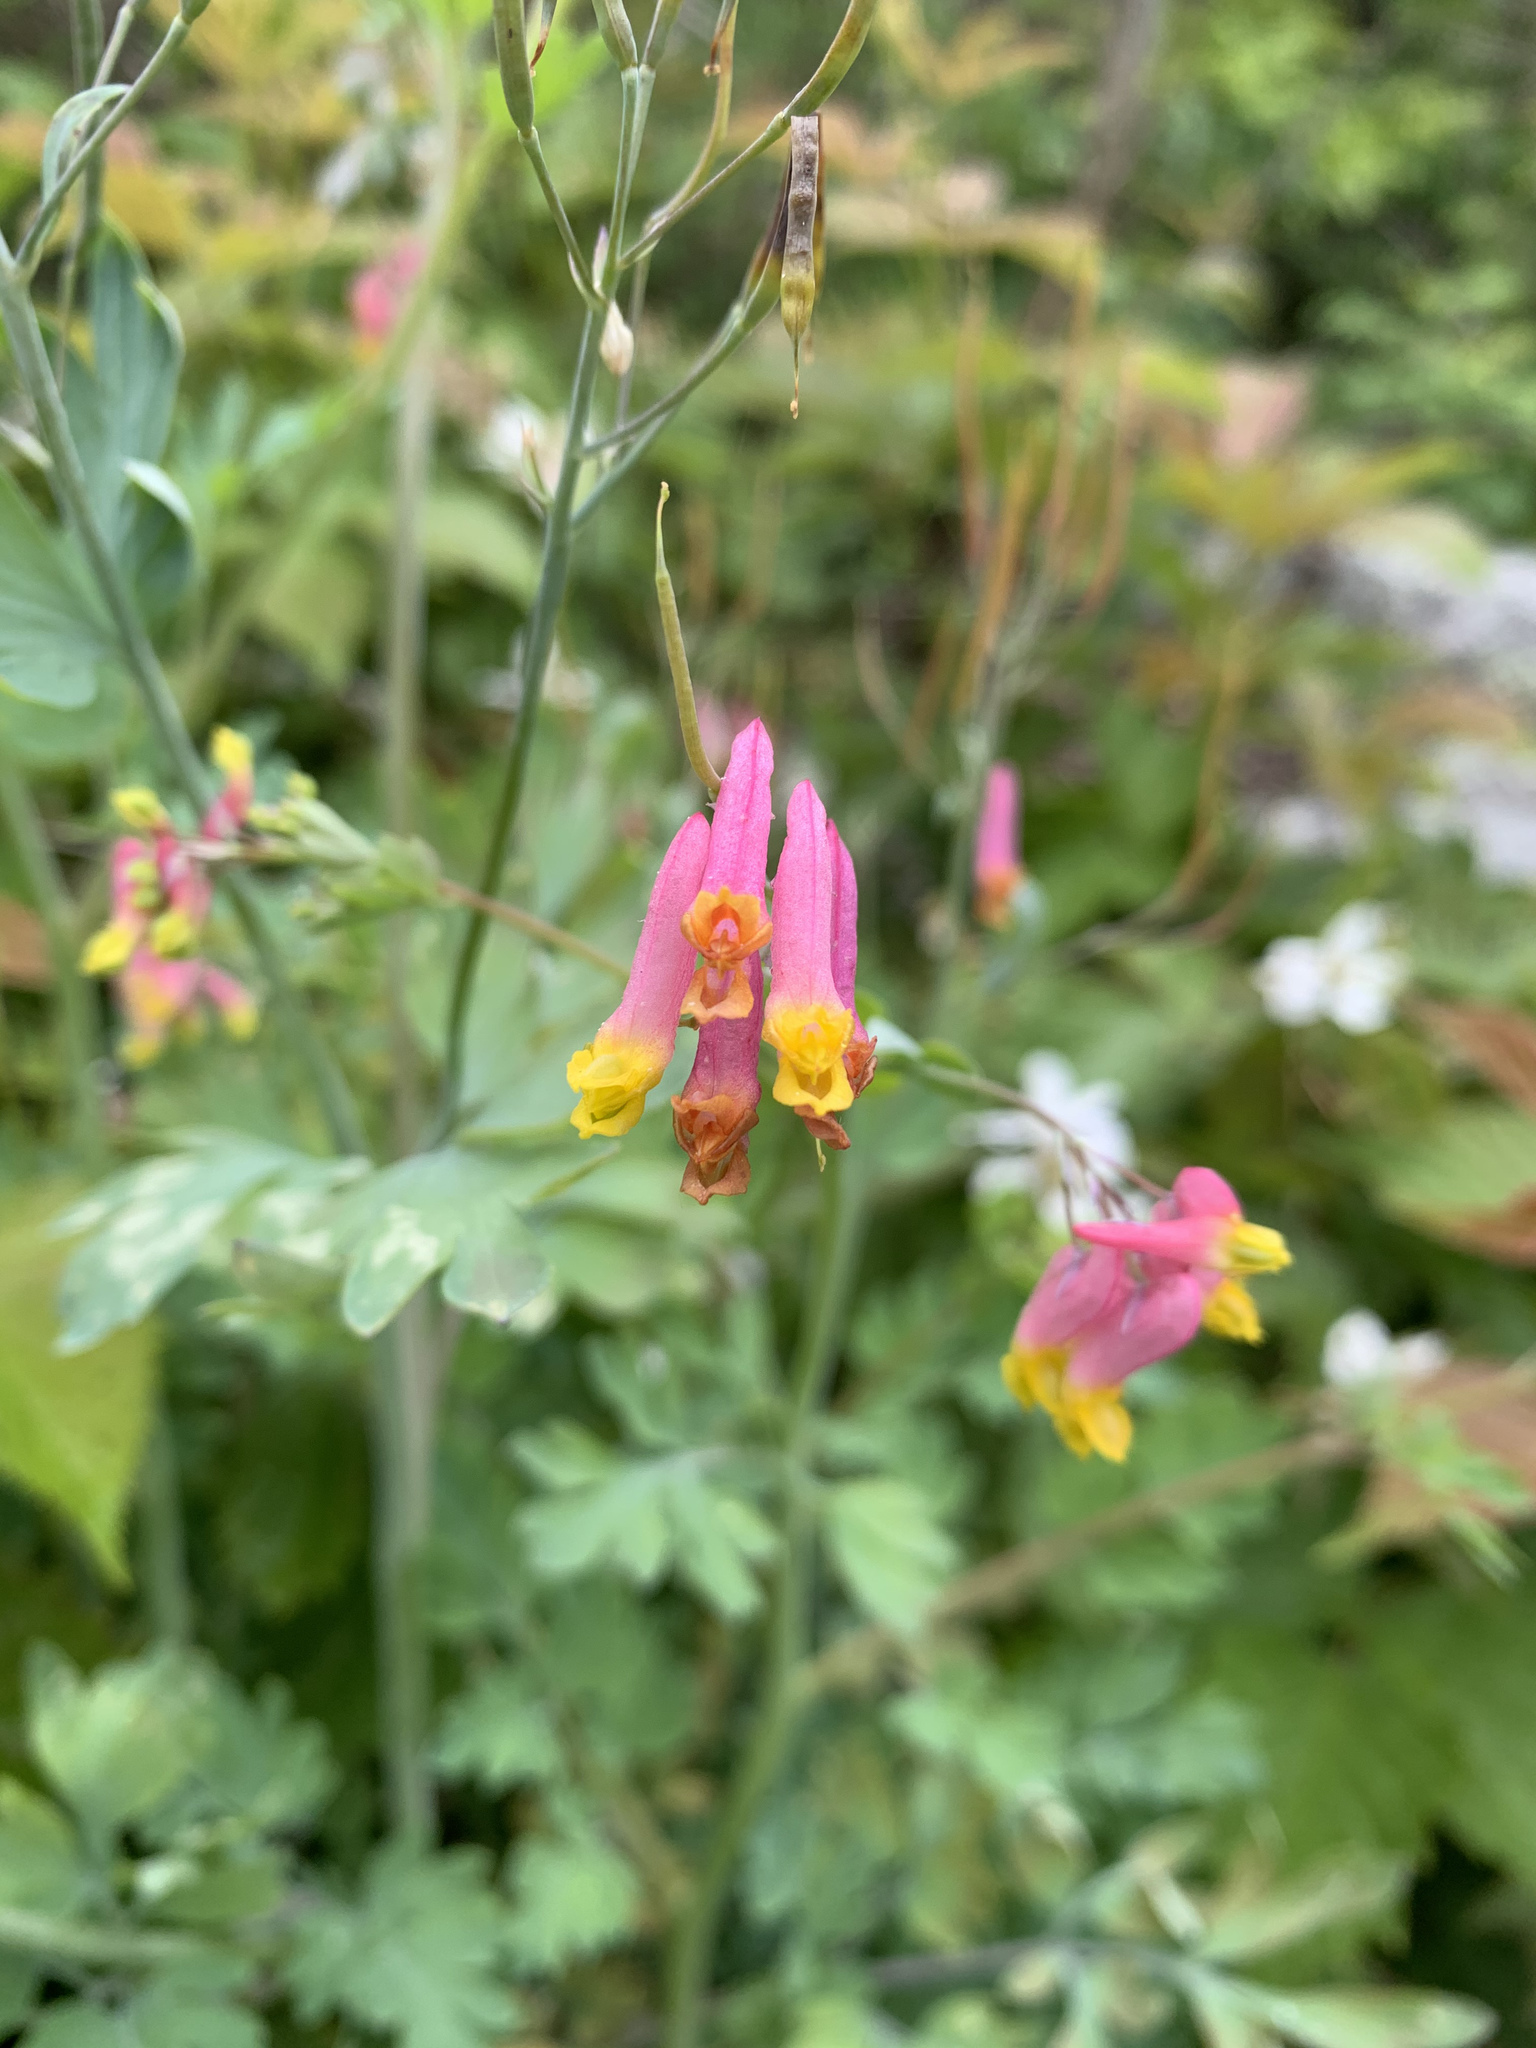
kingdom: Plantae
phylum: Tracheophyta
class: Magnoliopsida
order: Ranunculales
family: Papaveraceae
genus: Capnoides
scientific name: Capnoides sempervirens
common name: Rock harlequin
